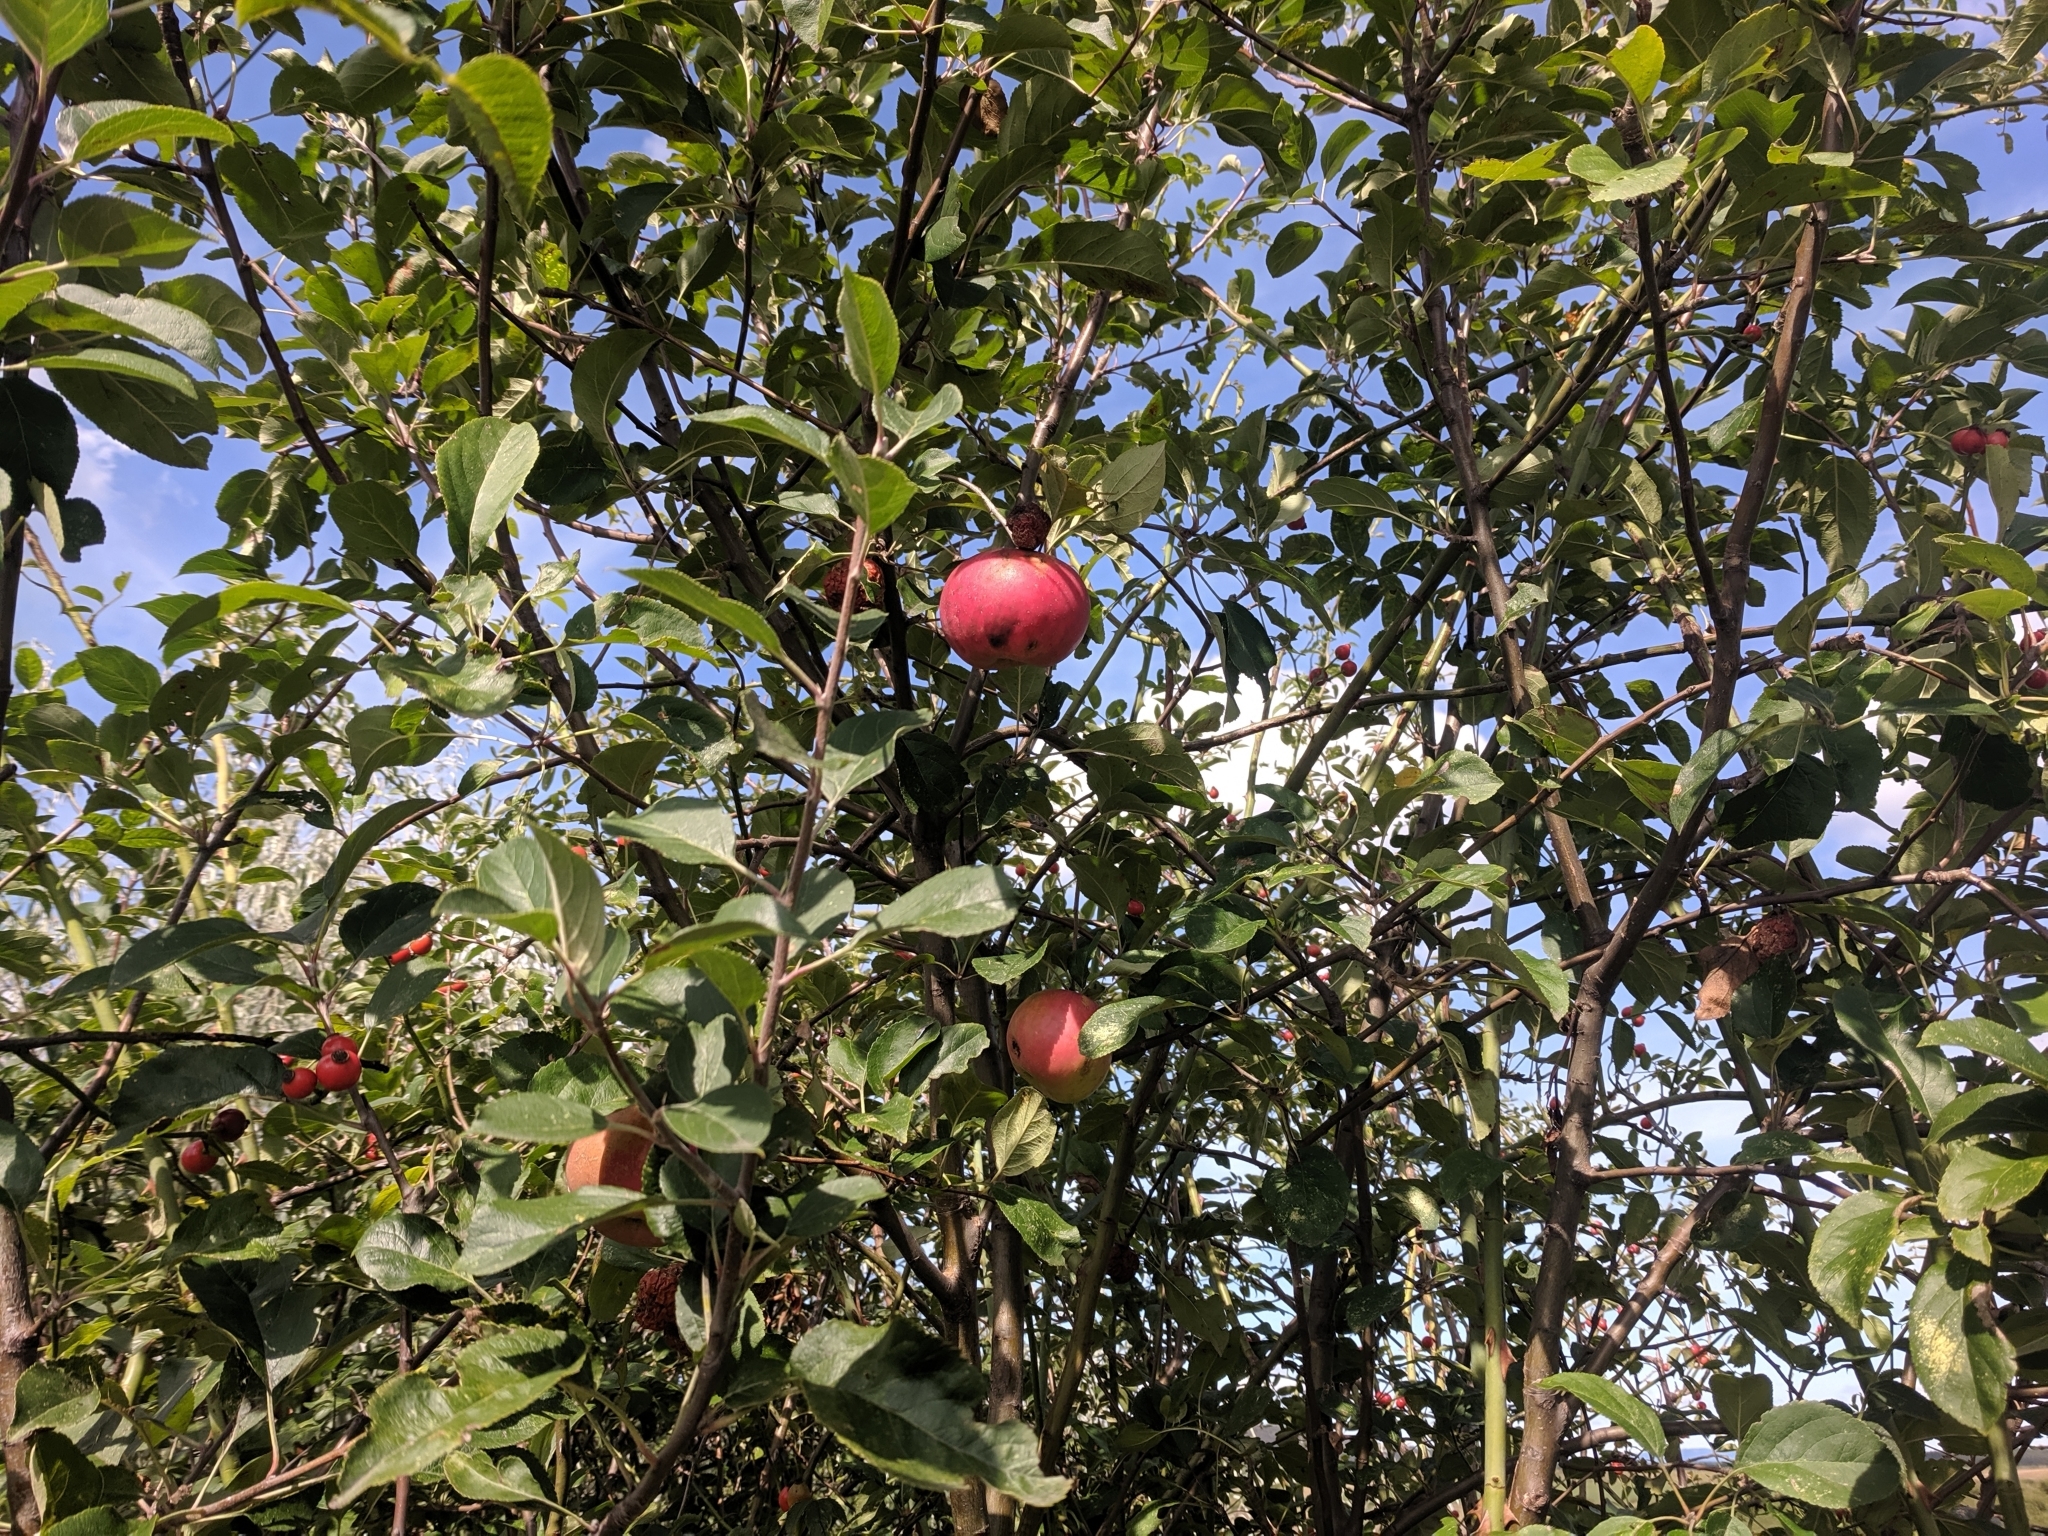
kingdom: Plantae
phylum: Tracheophyta
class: Magnoliopsida
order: Rosales
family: Rosaceae
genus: Malus
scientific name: Malus domestica
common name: Apple
